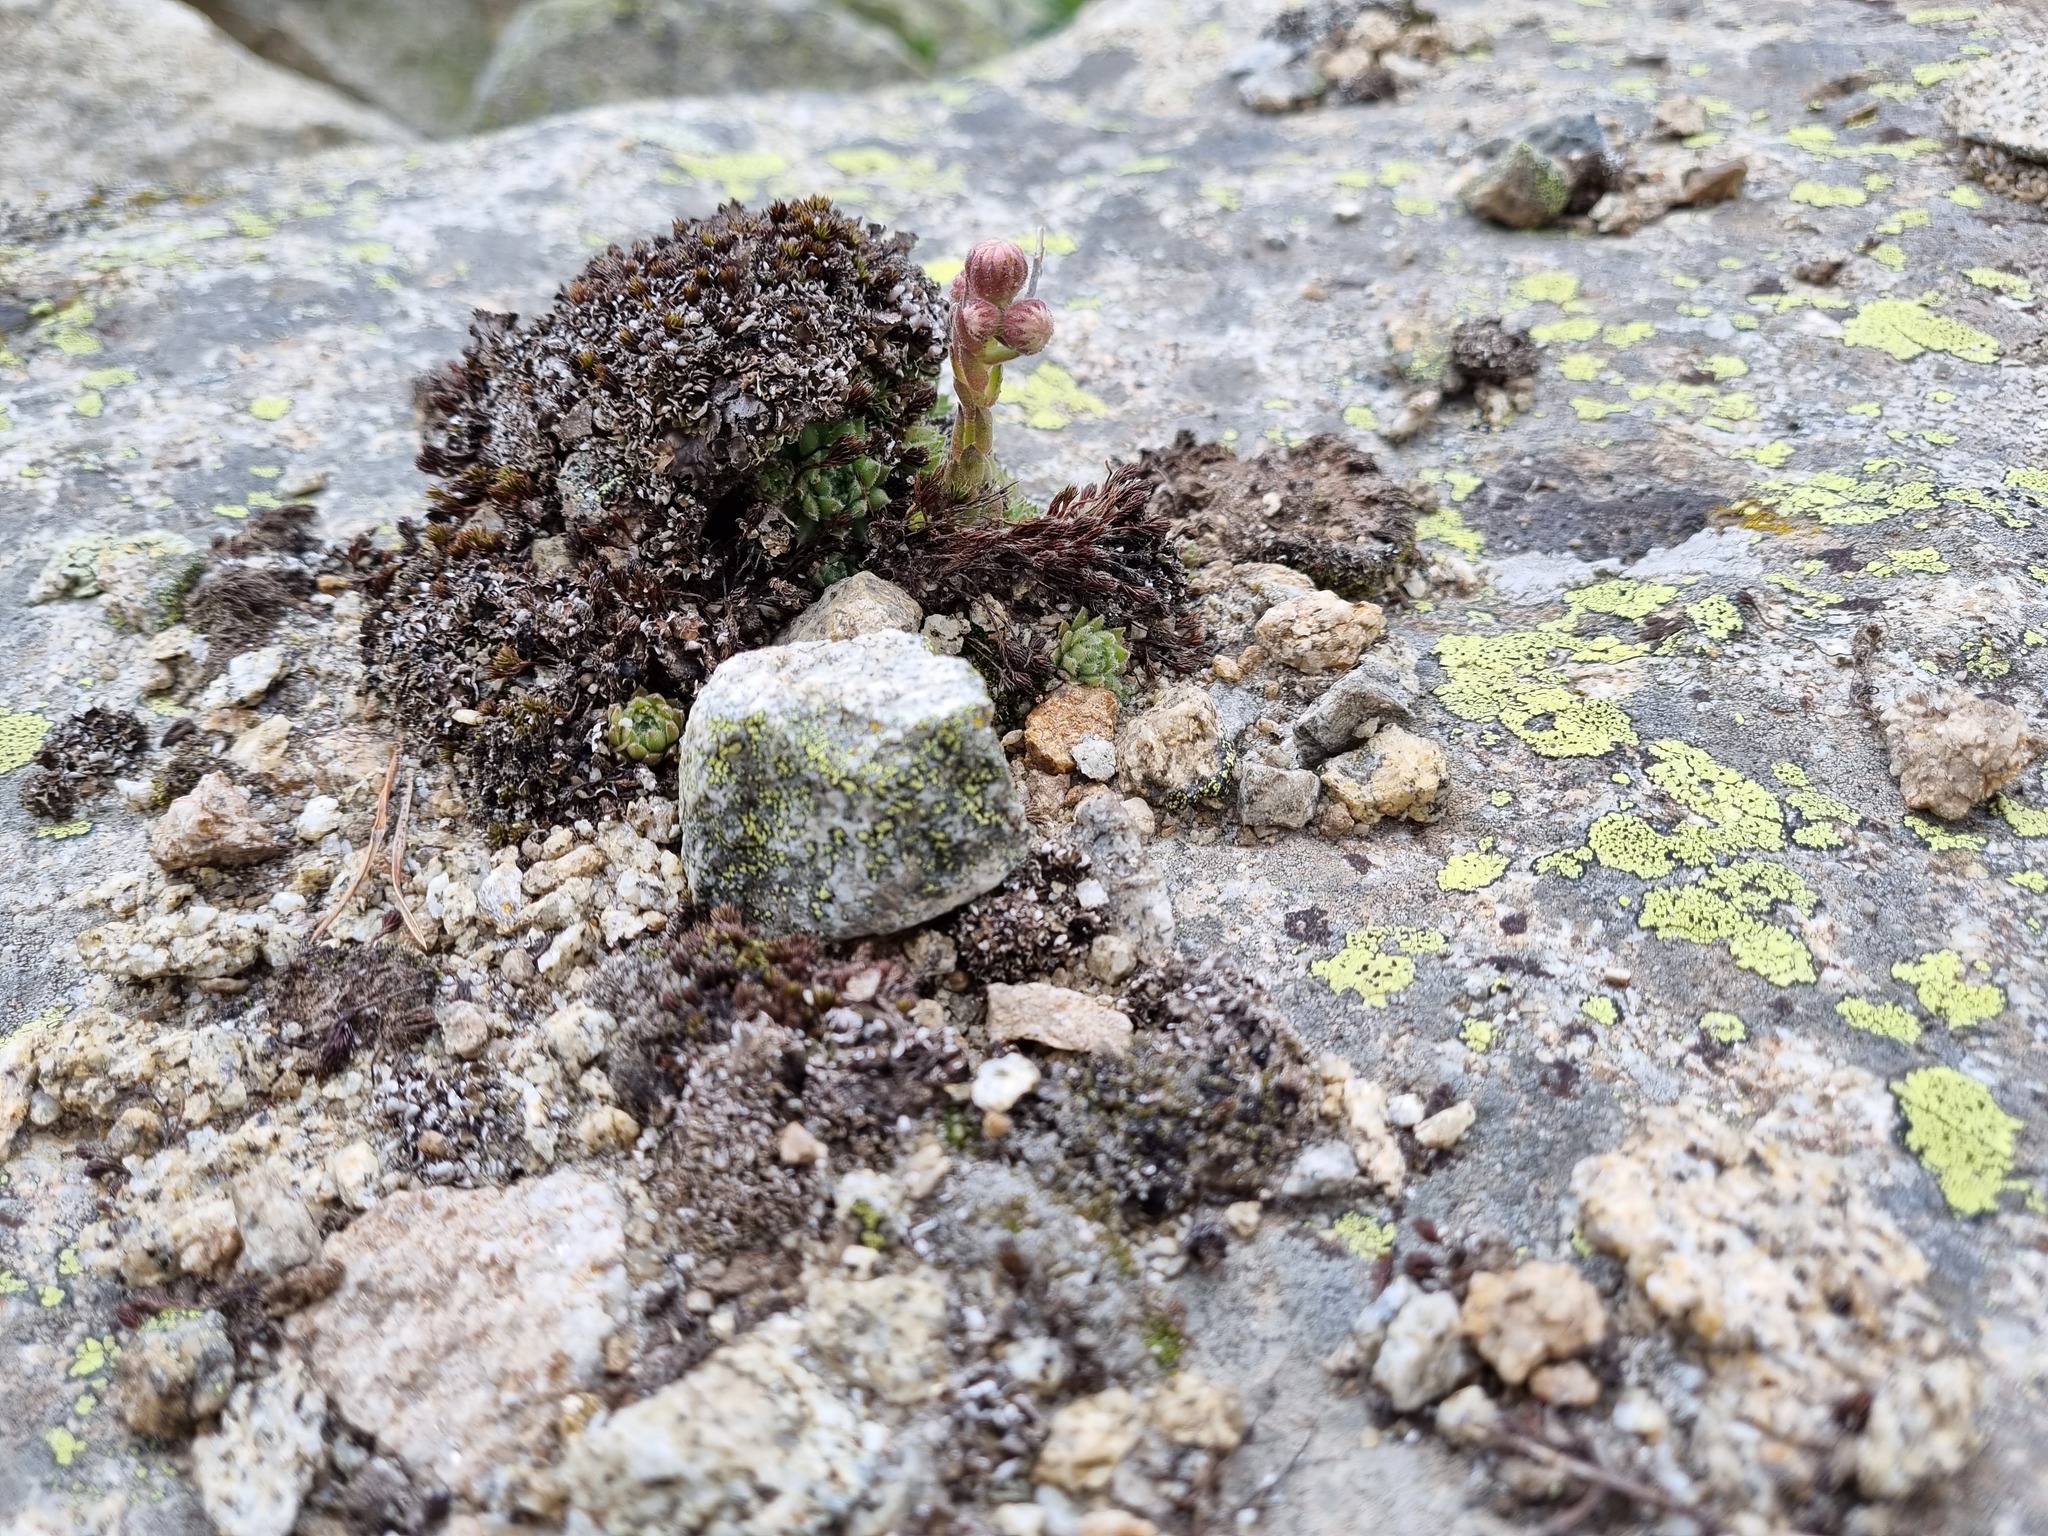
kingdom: Plantae
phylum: Tracheophyta
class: Magnoliopsida
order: Saxifragales
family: Crassulaceae
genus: Sempervivum
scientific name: Sempervivum pumilum
